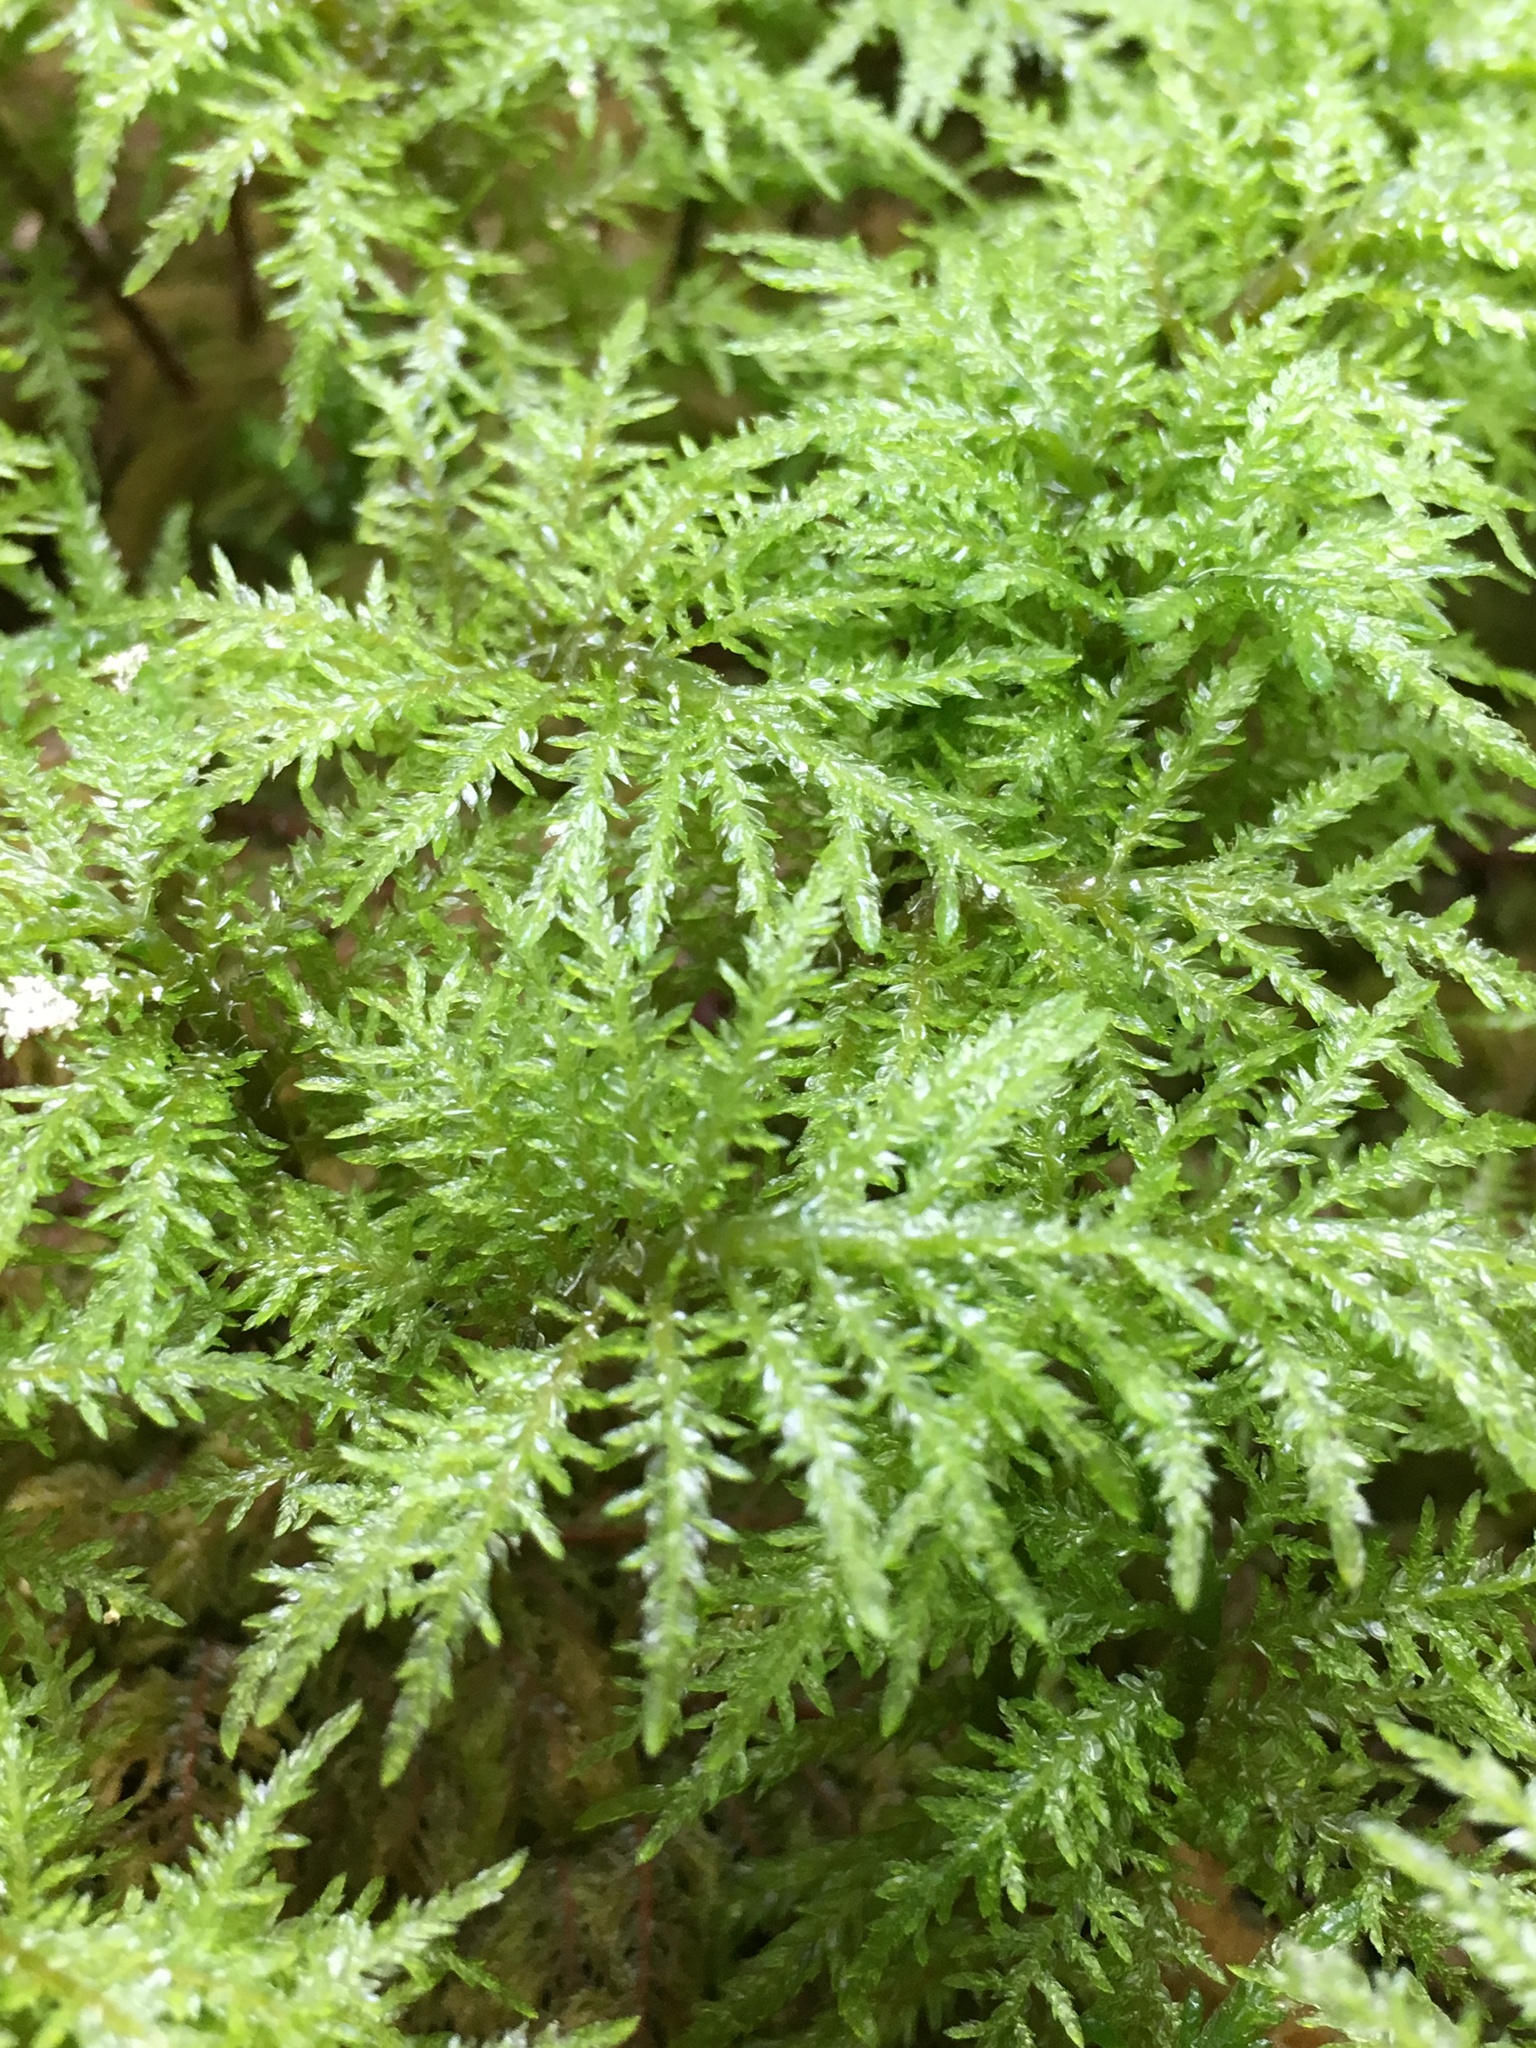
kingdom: Plantae
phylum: Bryophyta
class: Bryopsida
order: Hypnales
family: Hylocomiaceae
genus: Hylocomium
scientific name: Hylocomium splendens
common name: Stairstep moss
